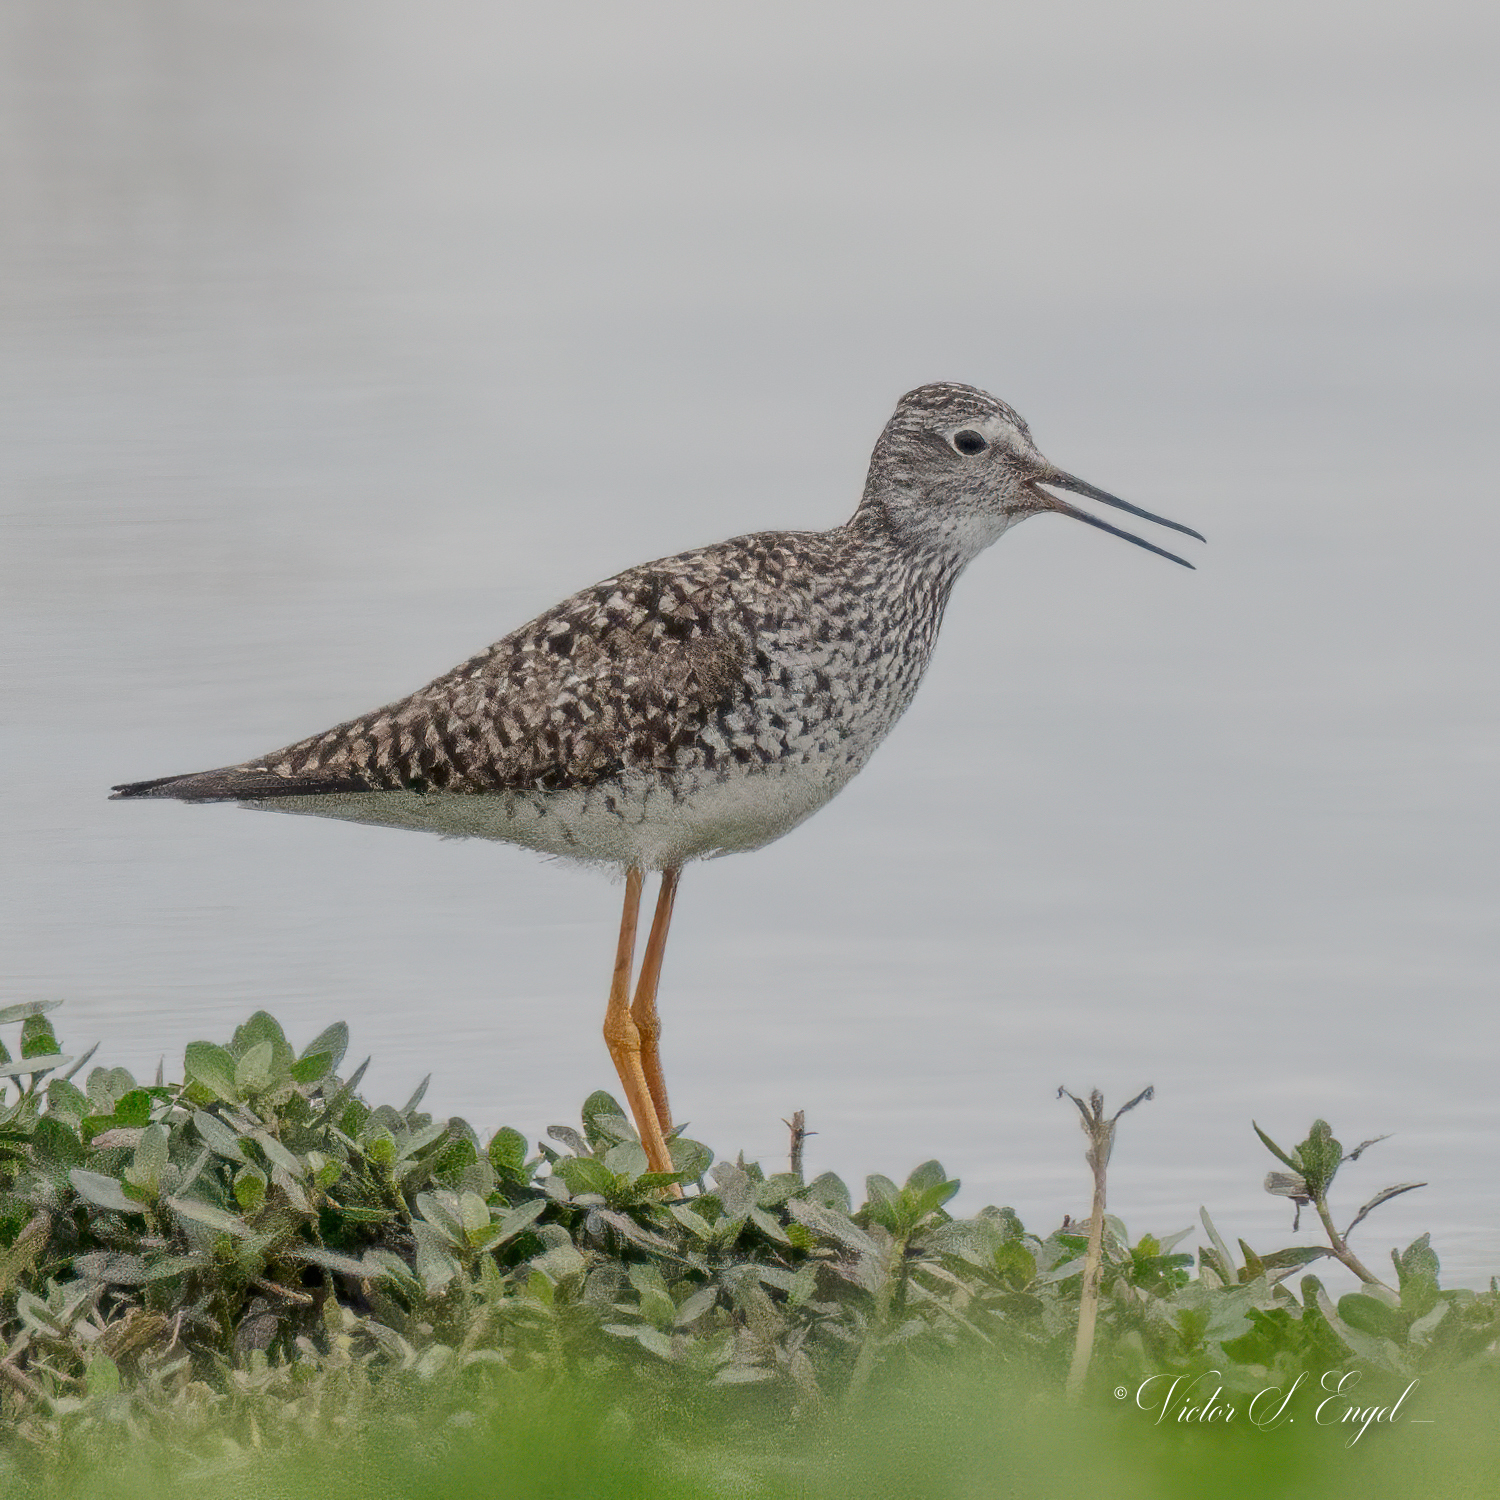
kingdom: Animalia
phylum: Chordata
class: Aves
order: Charadriiformes
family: Scolopacidae
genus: Tringa
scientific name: Tringa flavipes
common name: Lesser yellowlegs
